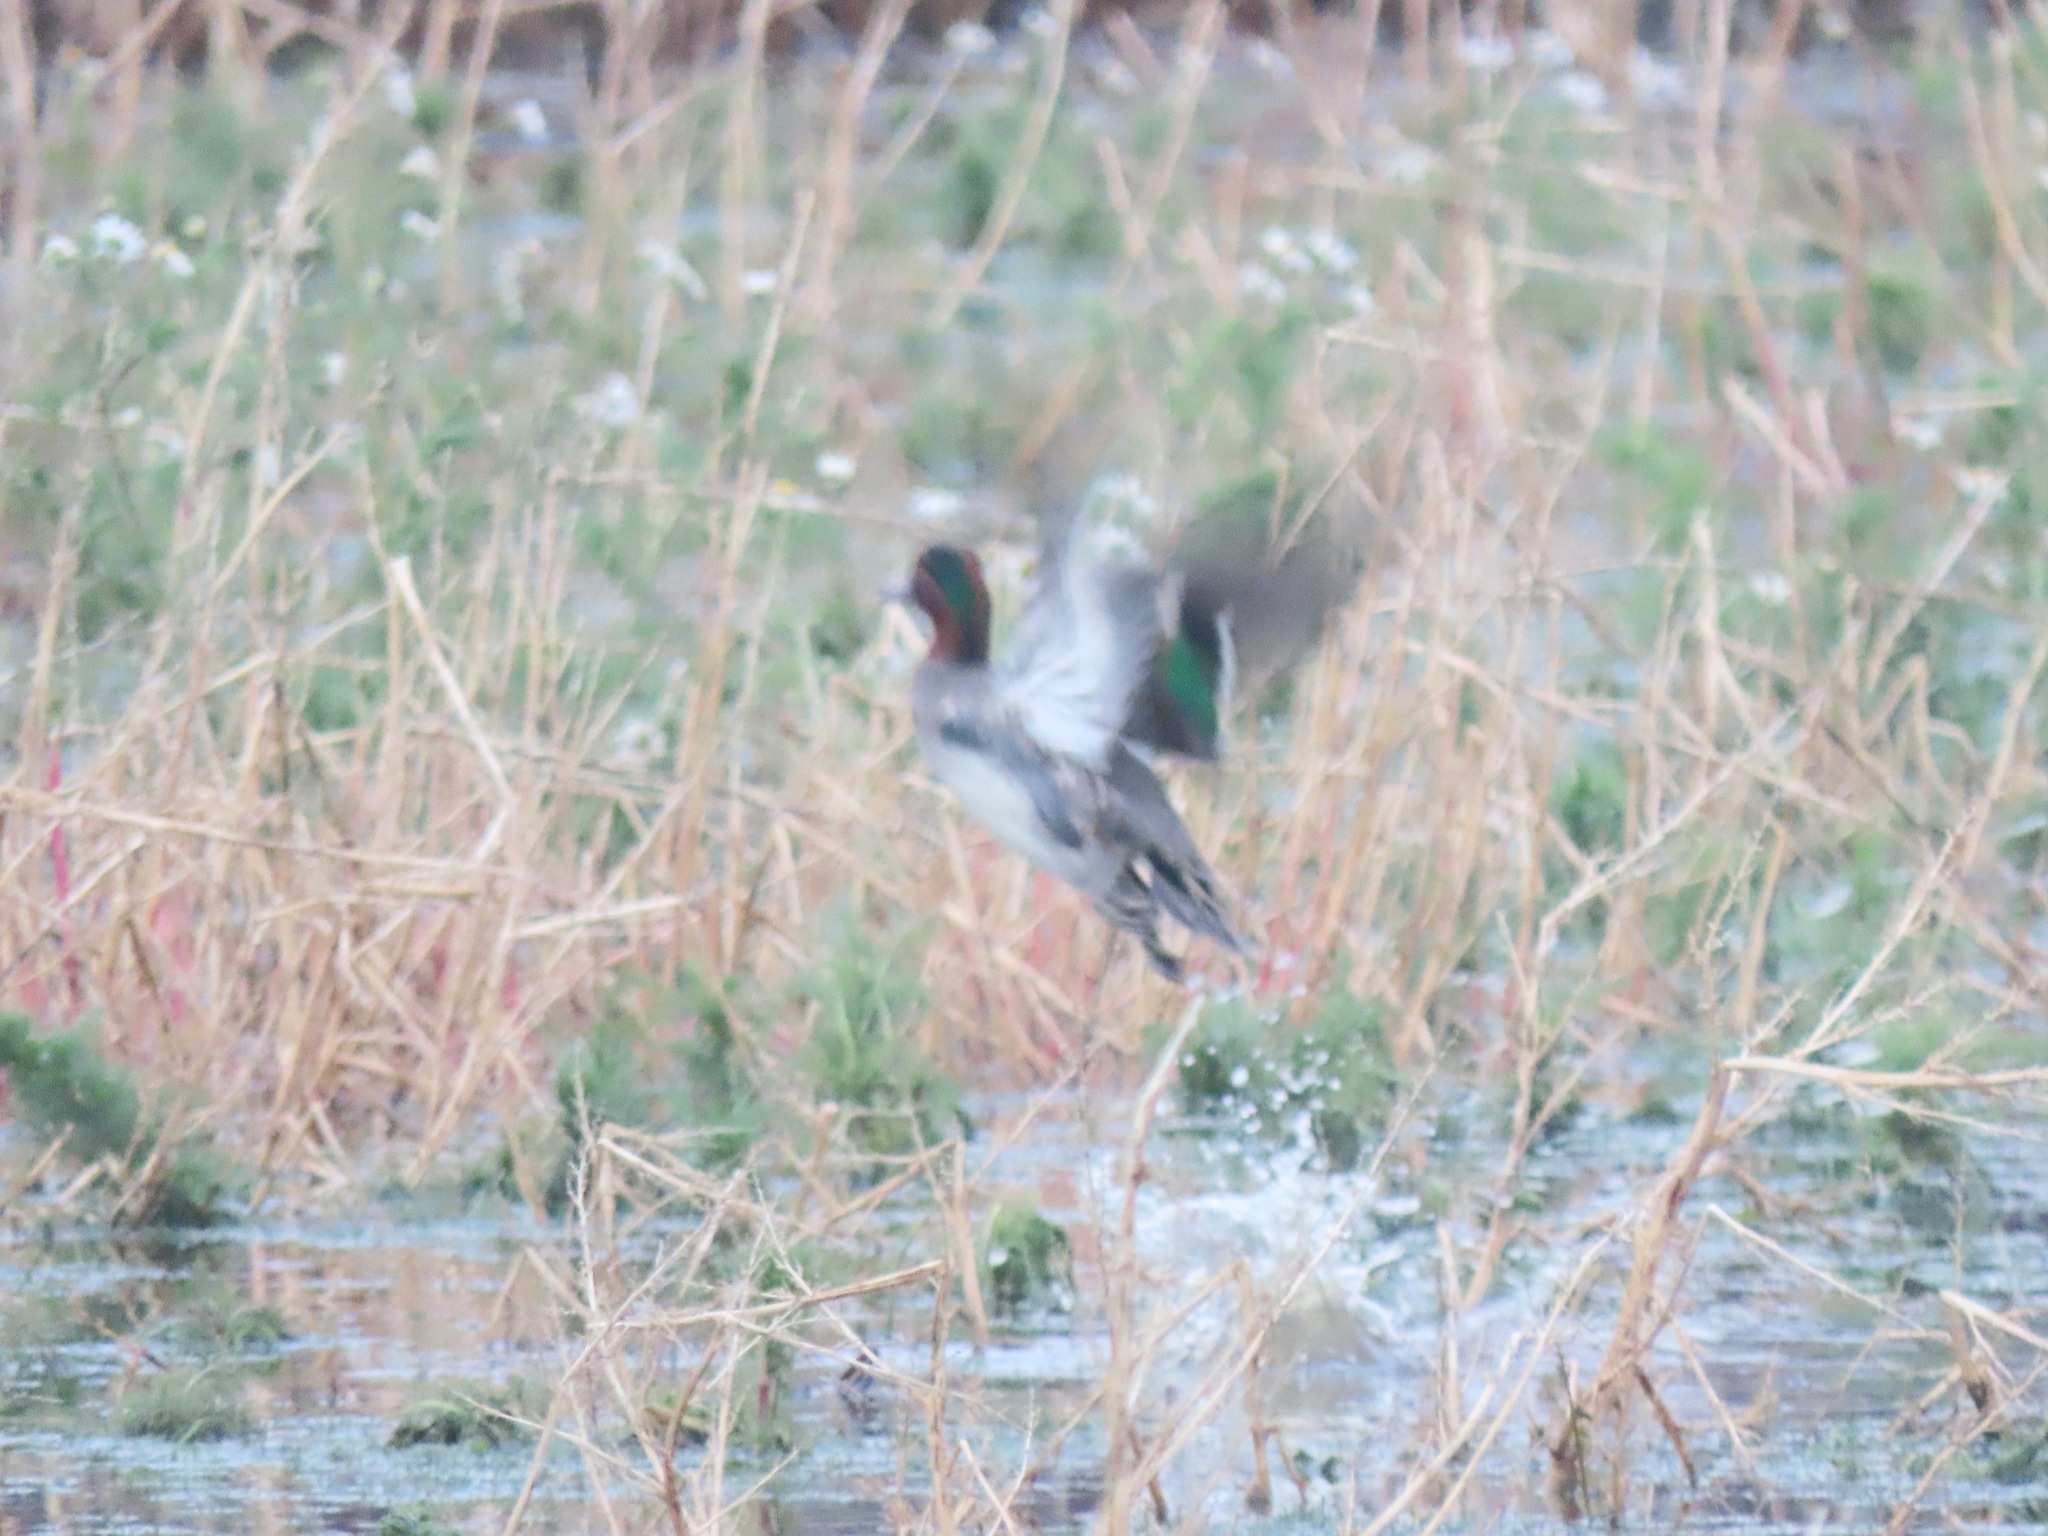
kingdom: Animalia
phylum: Chordata
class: Aves
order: Anseriformes
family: Anatidae
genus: Anas
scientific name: Anas crecca
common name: Eurasian teal
